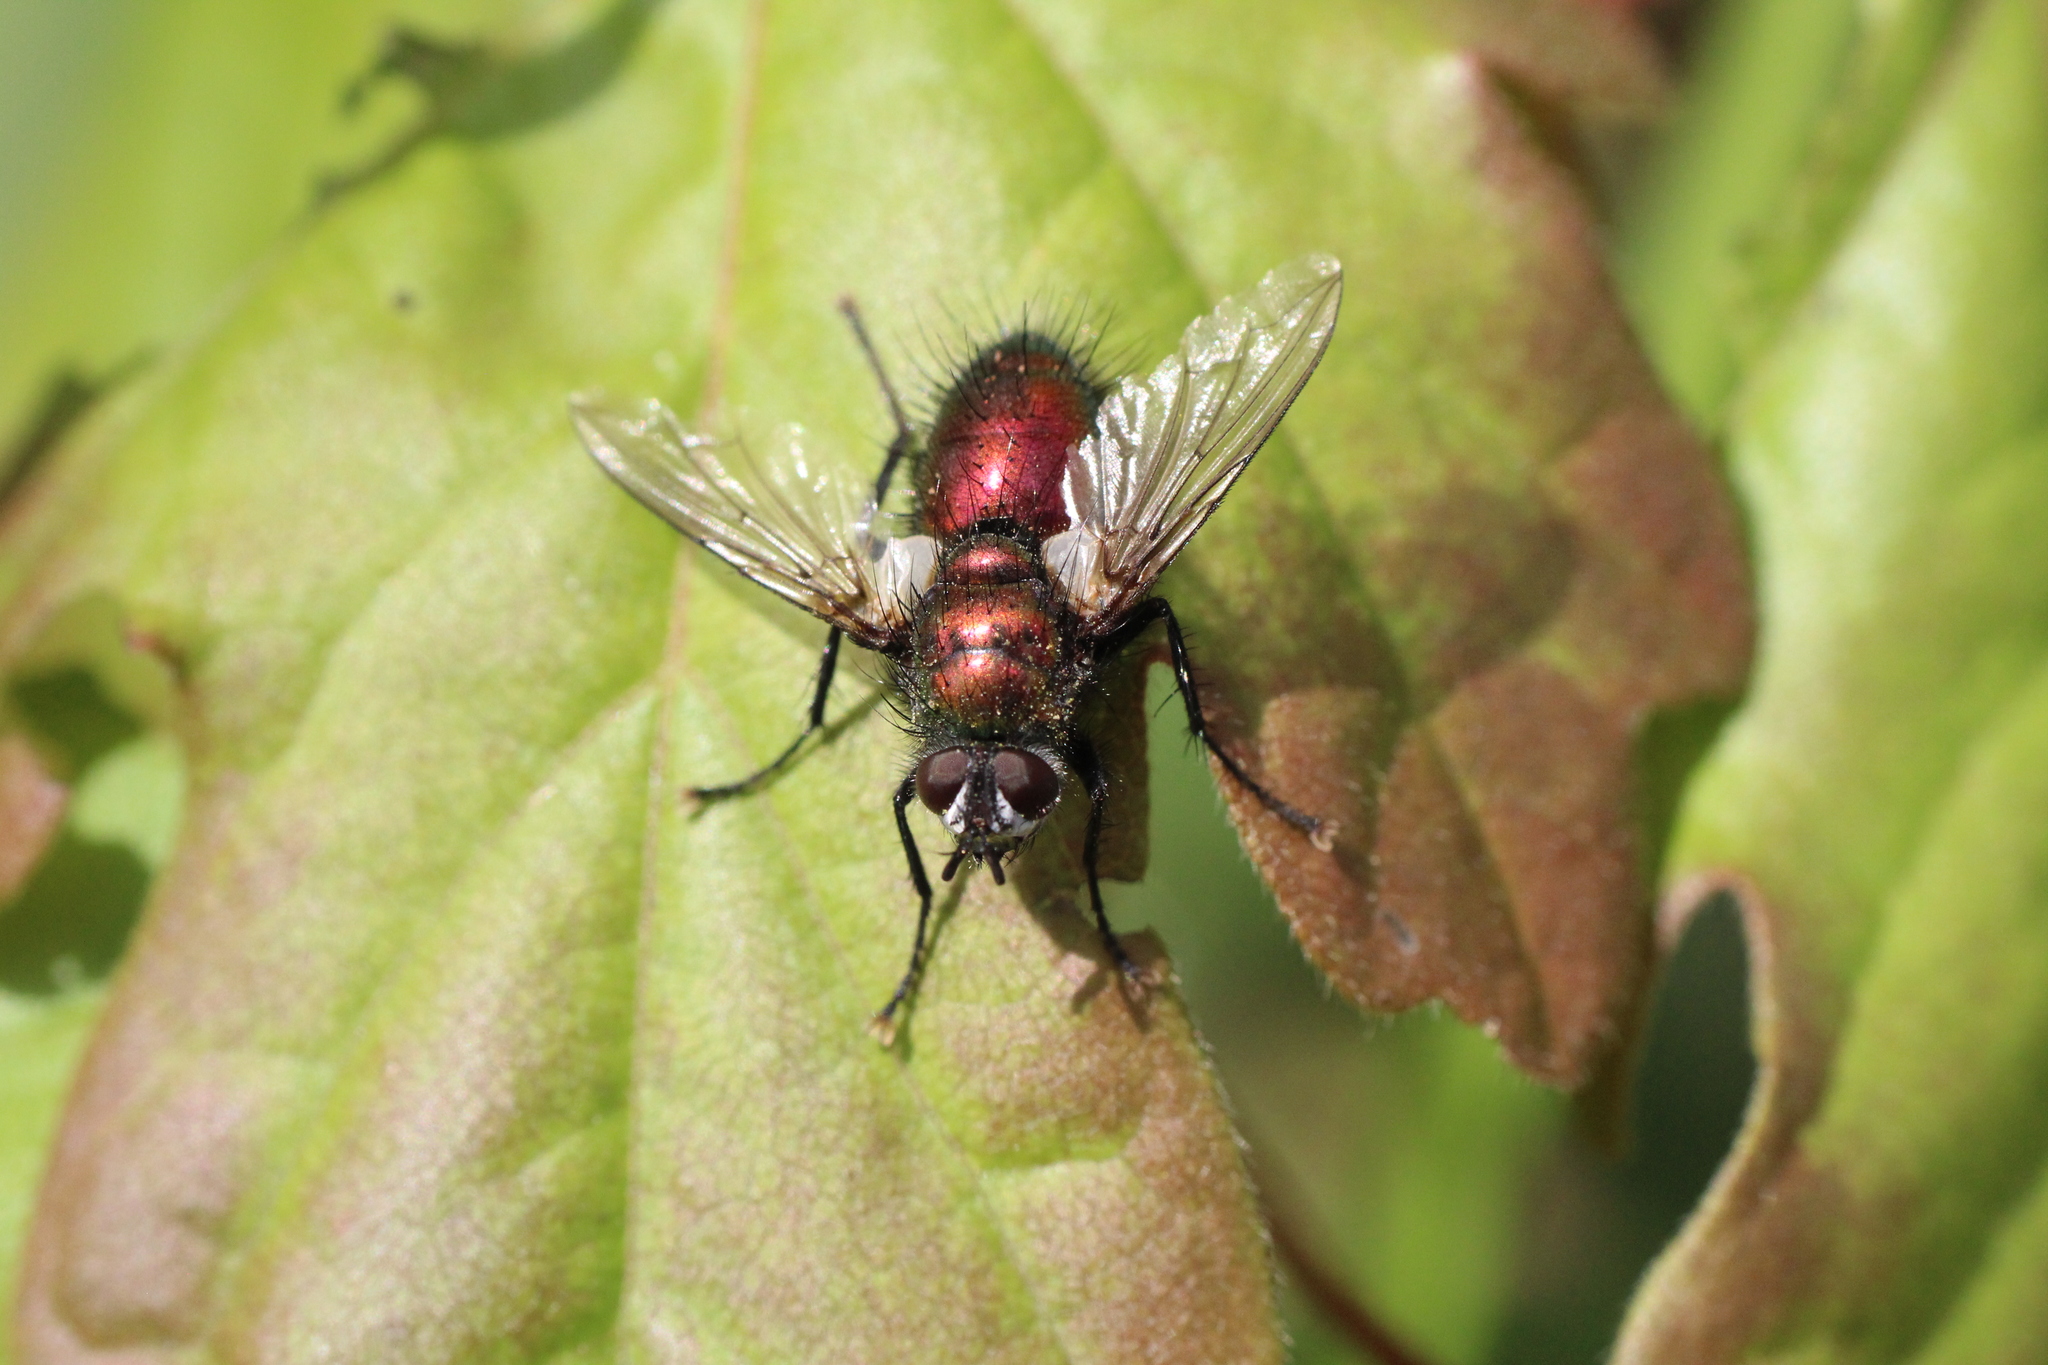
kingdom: Animalia
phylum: Arthropoda
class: Insecta
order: Diptera
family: Tachinidae
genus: Gymnocheta
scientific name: Gymnocheta viridis
